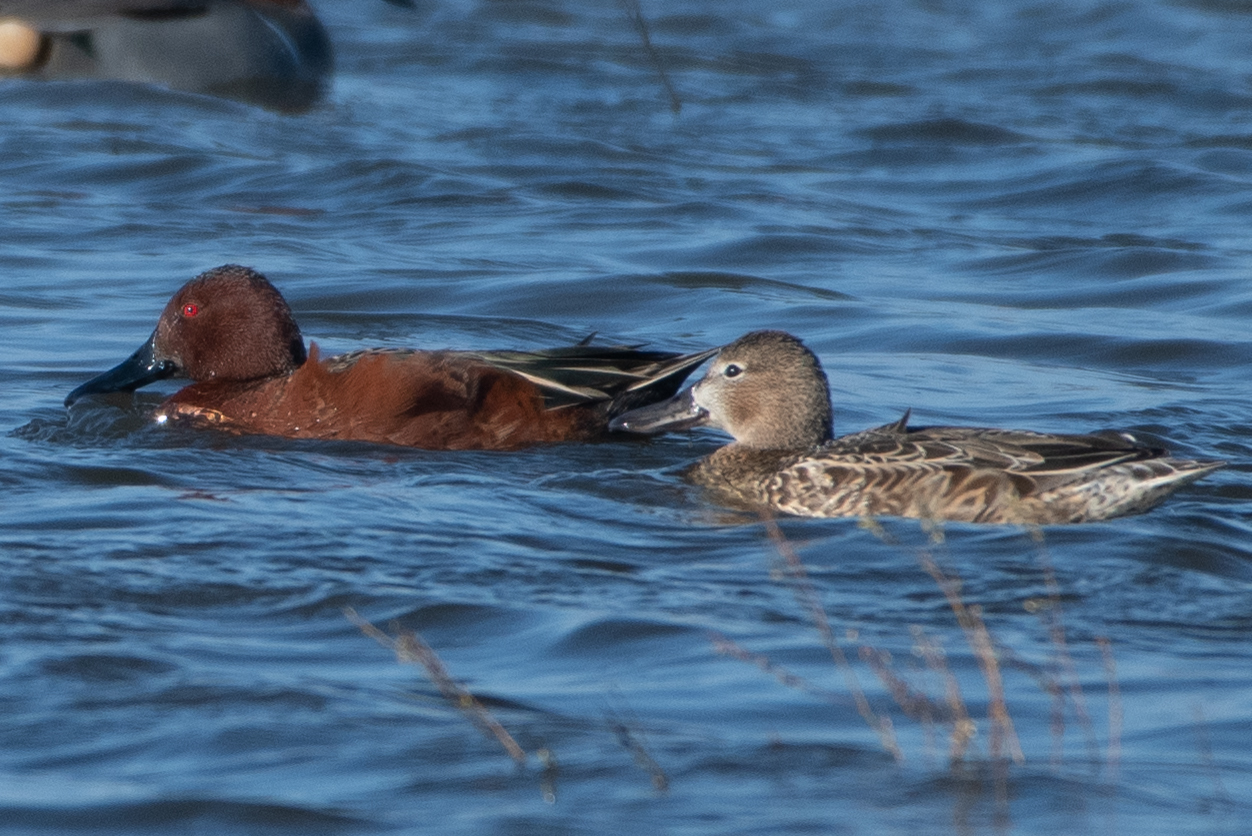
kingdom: Animalia
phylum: Chordata
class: Aves
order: Anseriformes
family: Anatidae
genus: Spatula
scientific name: Spatula cyanoptera
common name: Cinnamon teal
